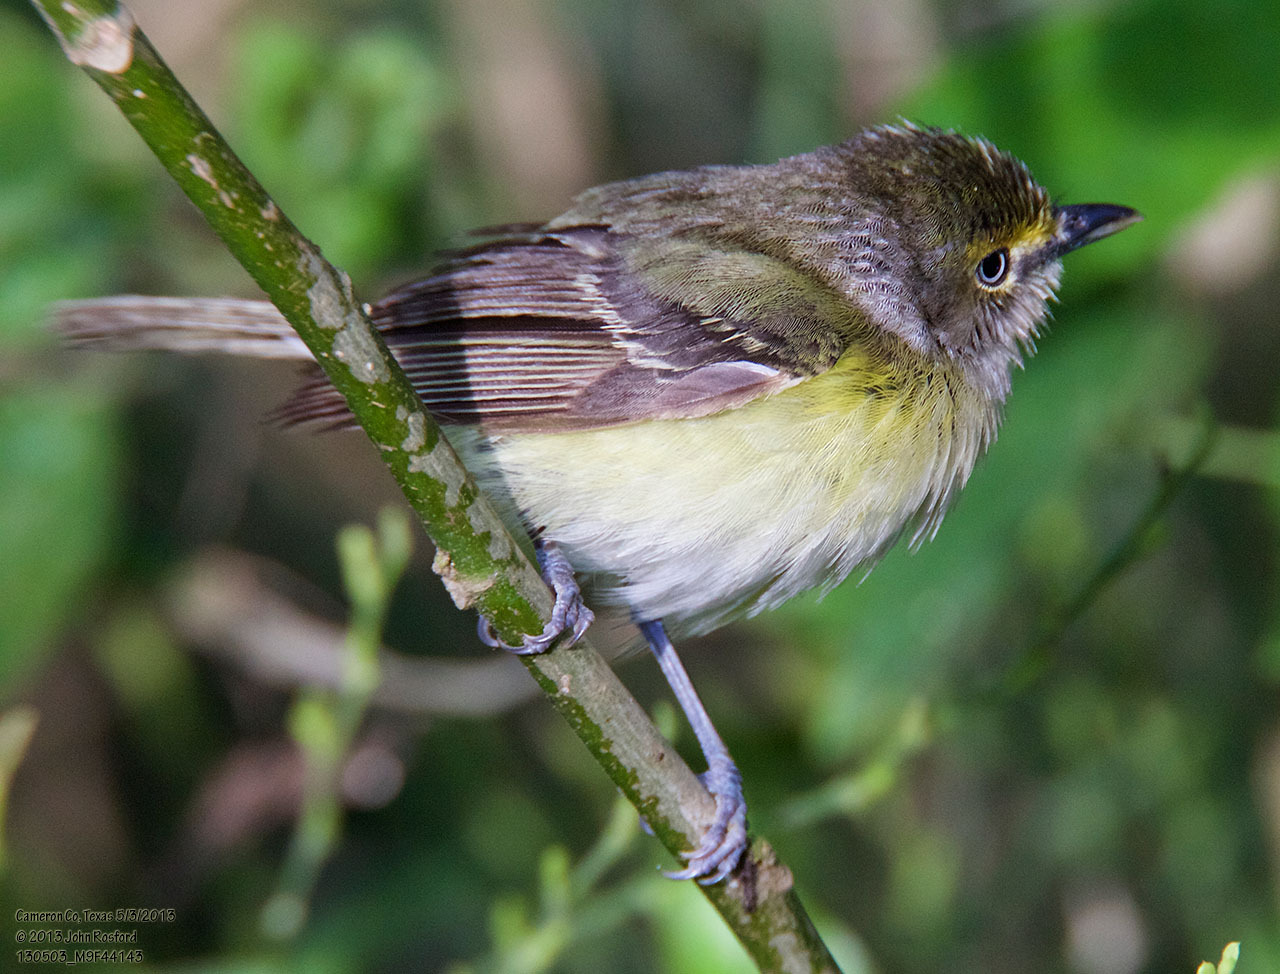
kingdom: Animalia
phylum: Chordata
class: Aves
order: Passeriformes
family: Vireonidae
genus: Vireo
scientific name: Vireo griseus
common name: White-eyed vireo
